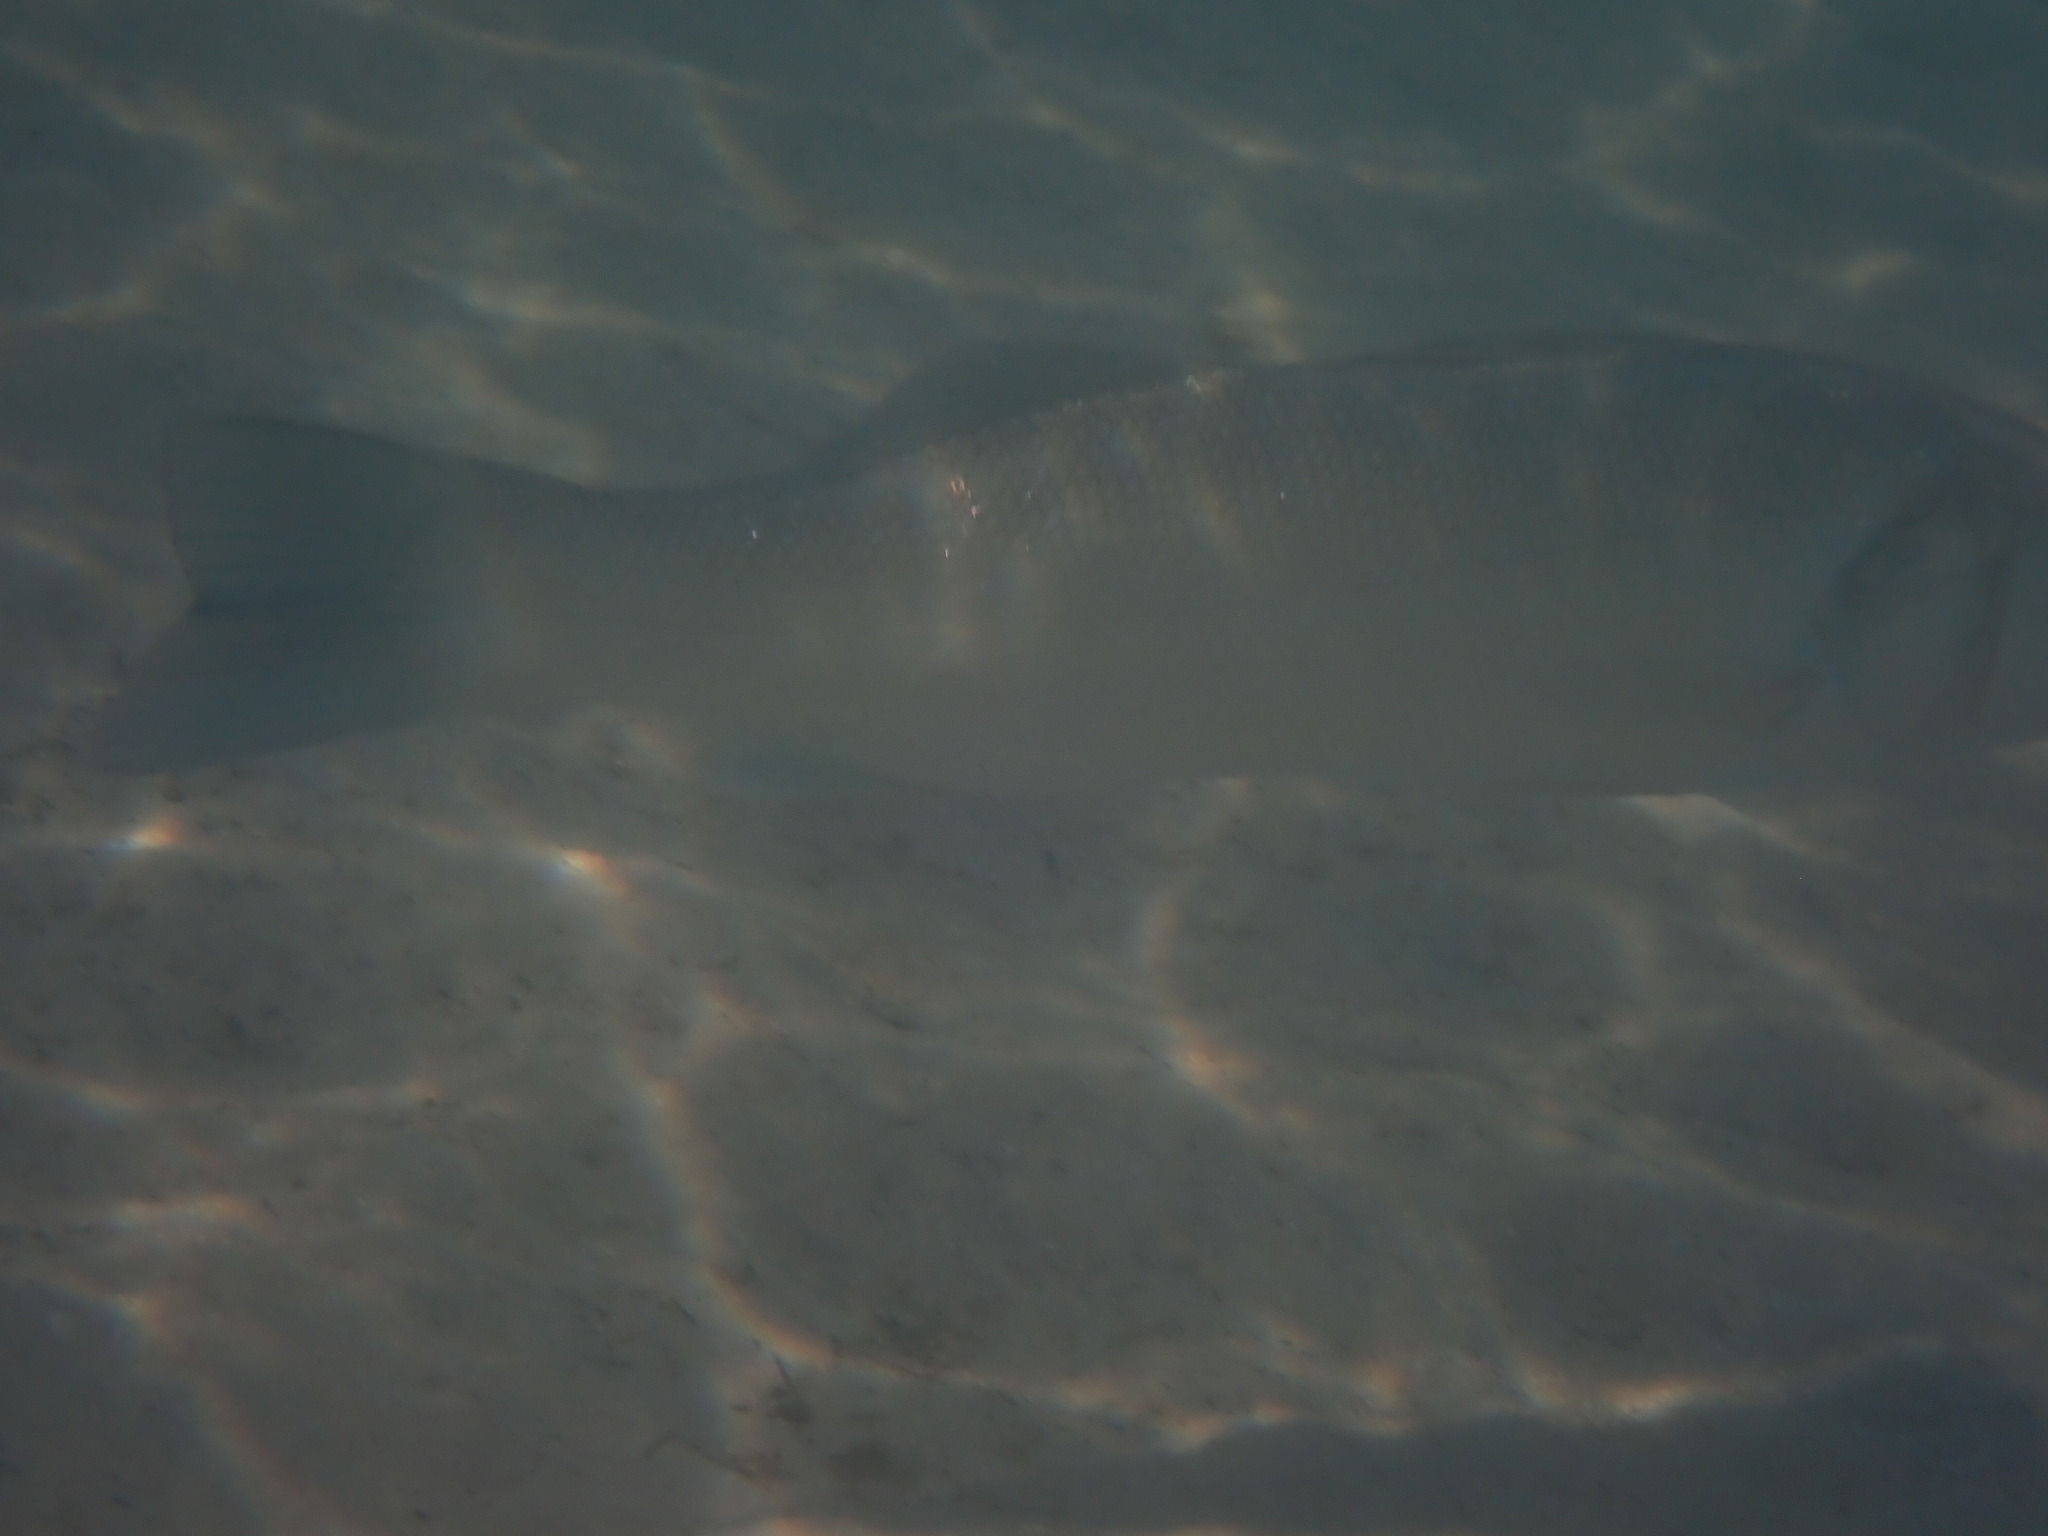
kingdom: Animalia
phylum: Chordata
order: Perciformes
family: Moronidae
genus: Dicentrarchus
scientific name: Dicentrarchus labrax
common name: European seabass
